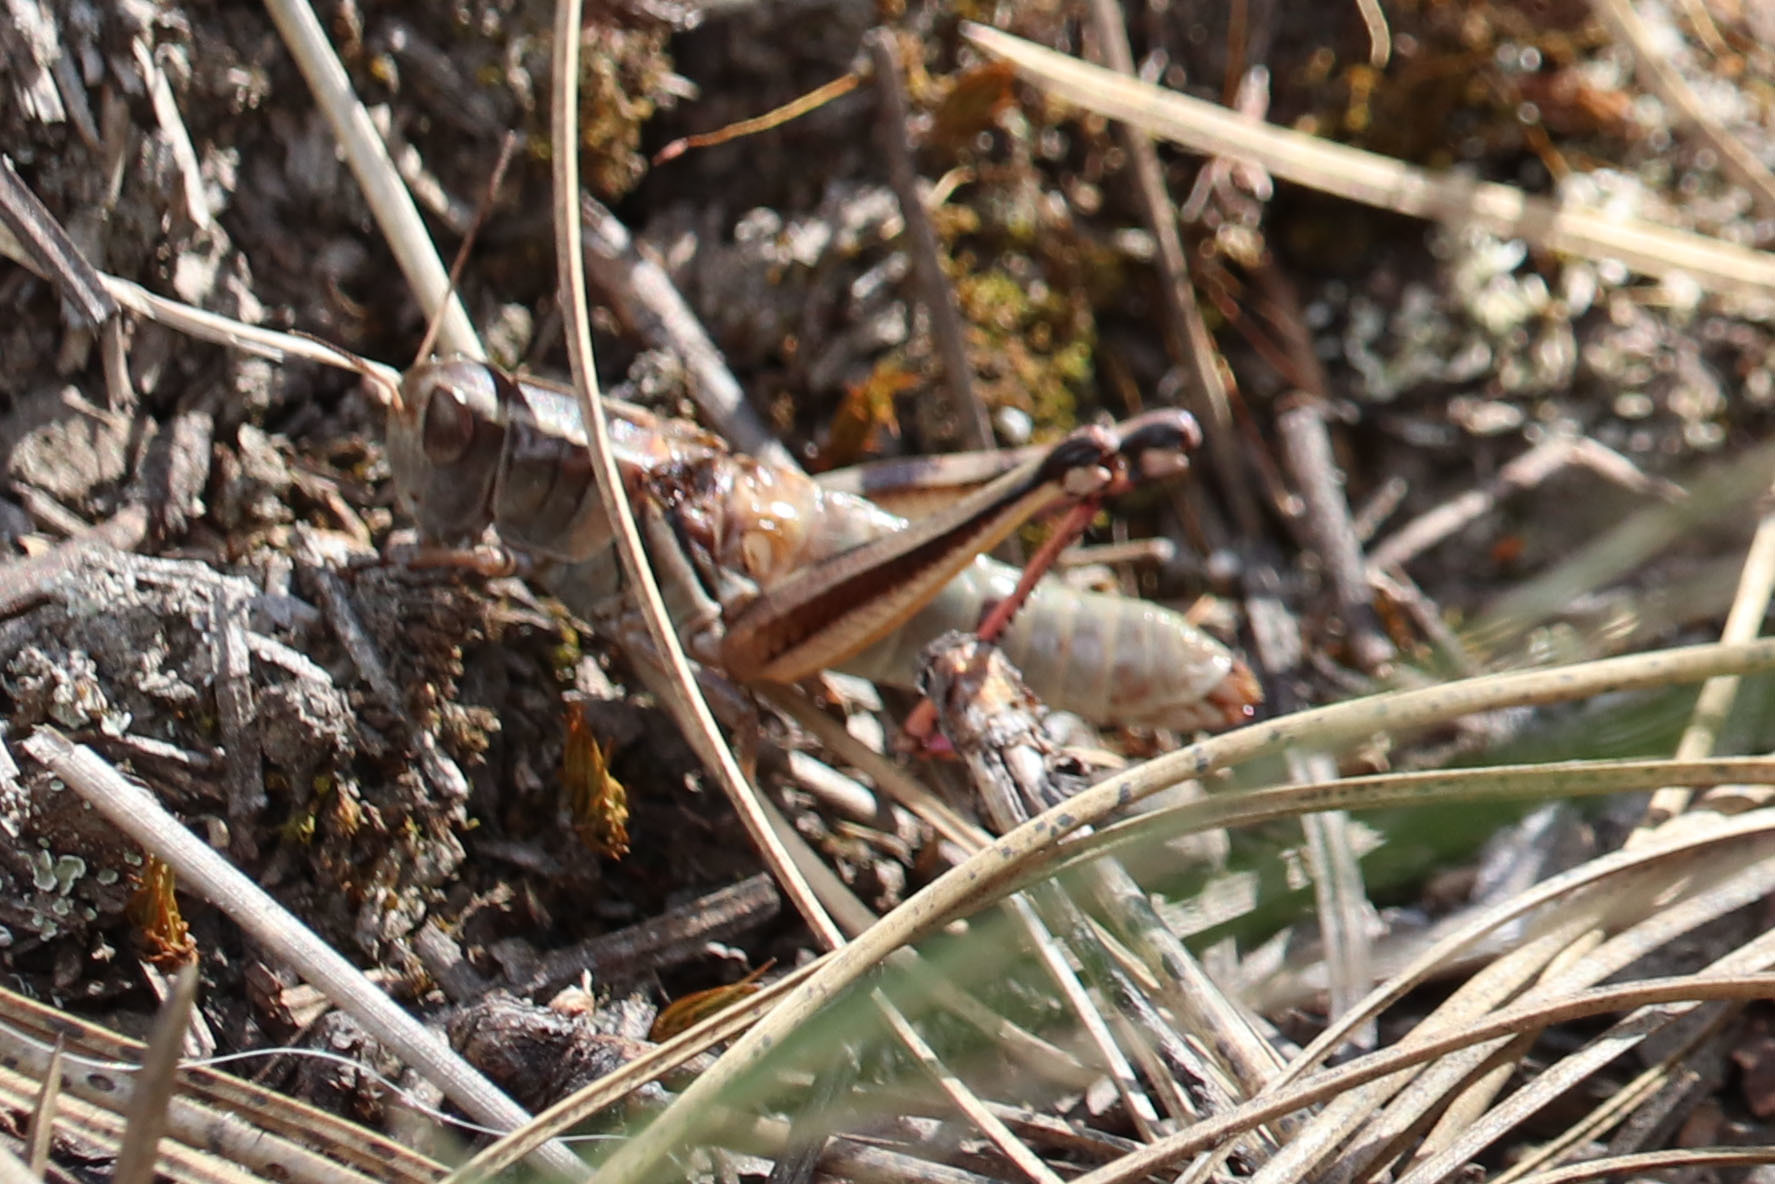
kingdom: Animalia
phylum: Arthropoda
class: Insecta
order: Orthoptera
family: Acrididae
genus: Melanoplus
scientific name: Melanoplus bivittatus
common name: Two-striped grasshopper
